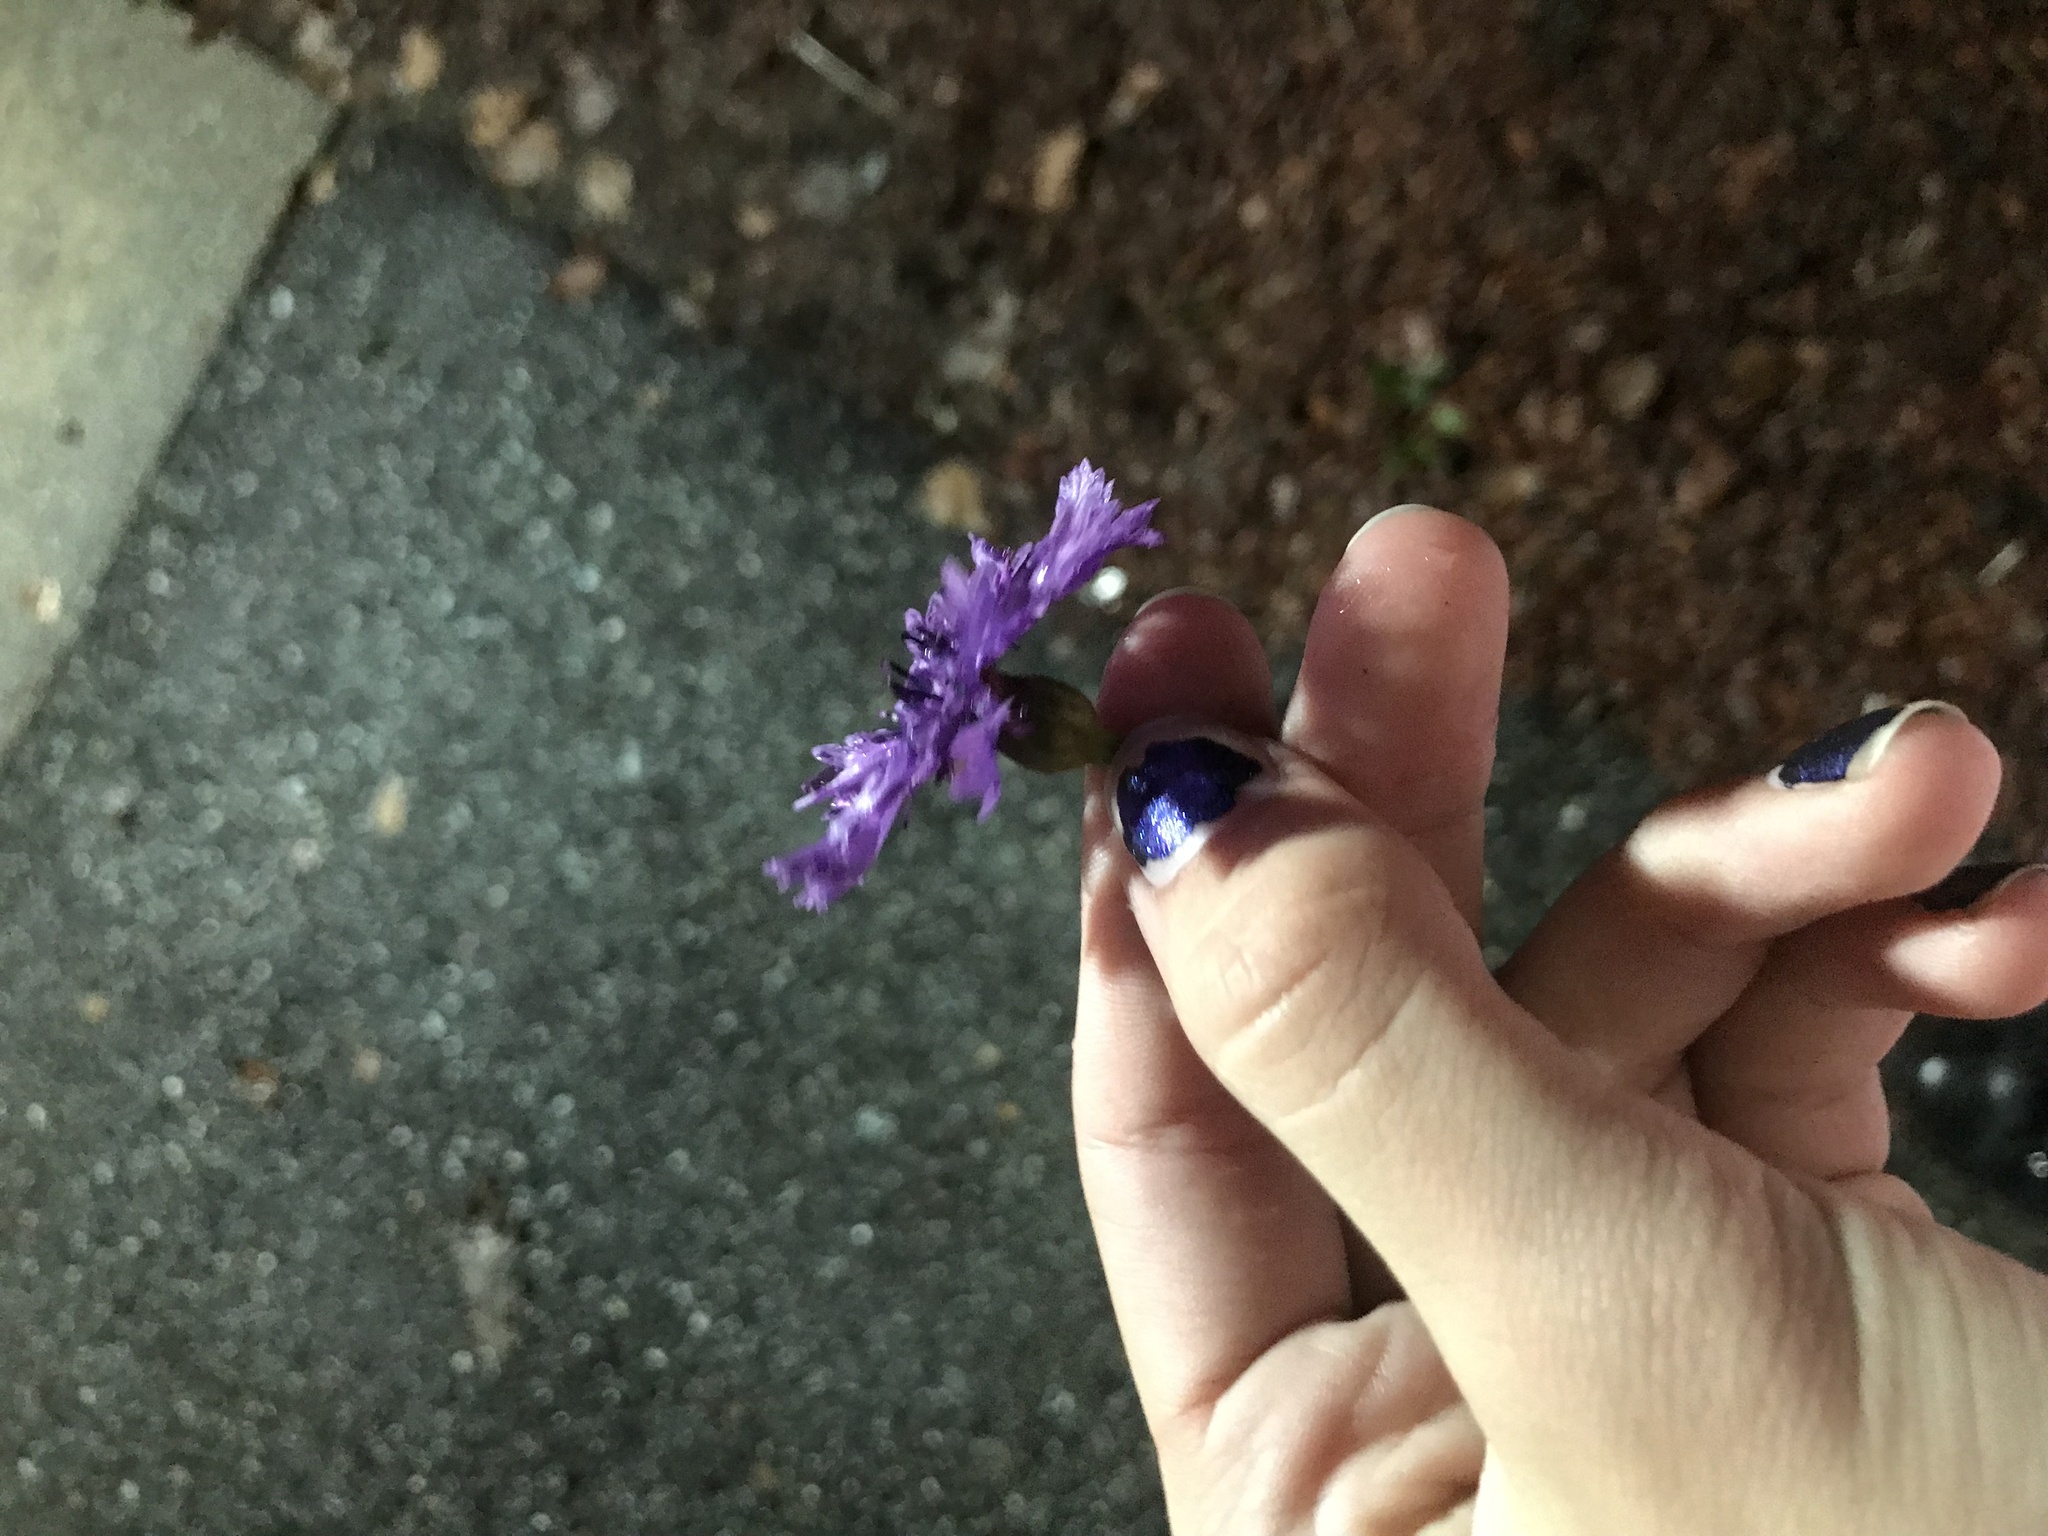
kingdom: Plantae
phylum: Tracheophyta
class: Magnoliopsida
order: Asterales
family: Asteraceae
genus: Centaurea
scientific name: Centaurea cyanus
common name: Cornflower
